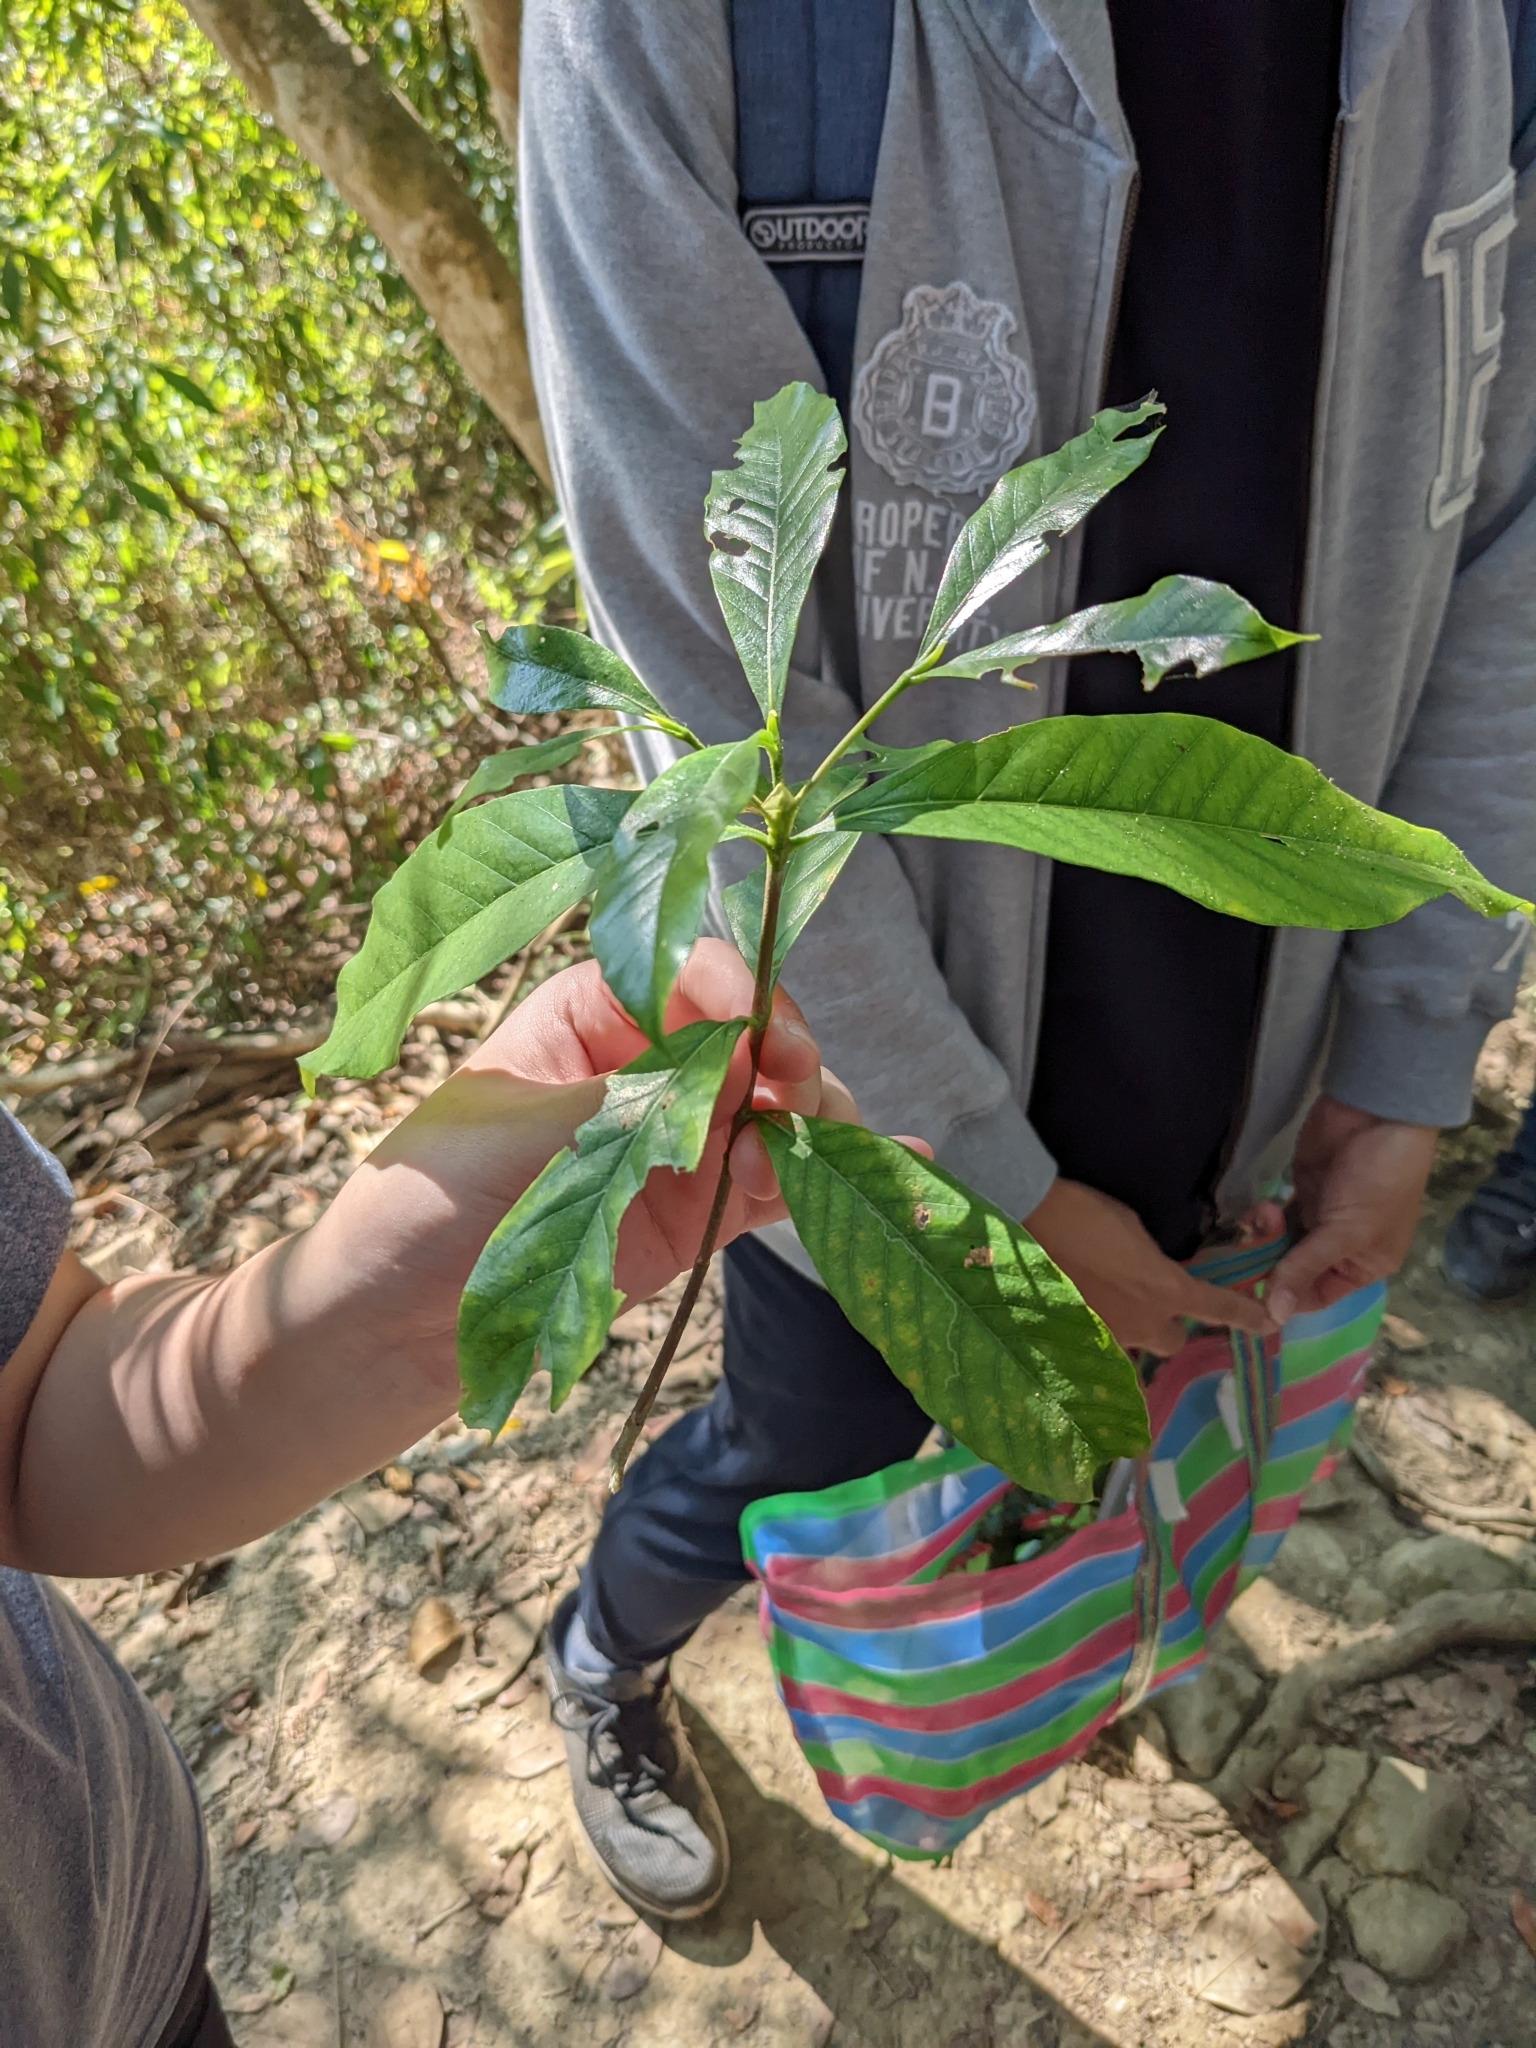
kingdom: Plantae
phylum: Tracheophyta
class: Magnoliopsida
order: Gentianales
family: Rubiaceae
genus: Gardenia
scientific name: Gardenia jasminoides
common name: Cape-jasmine
